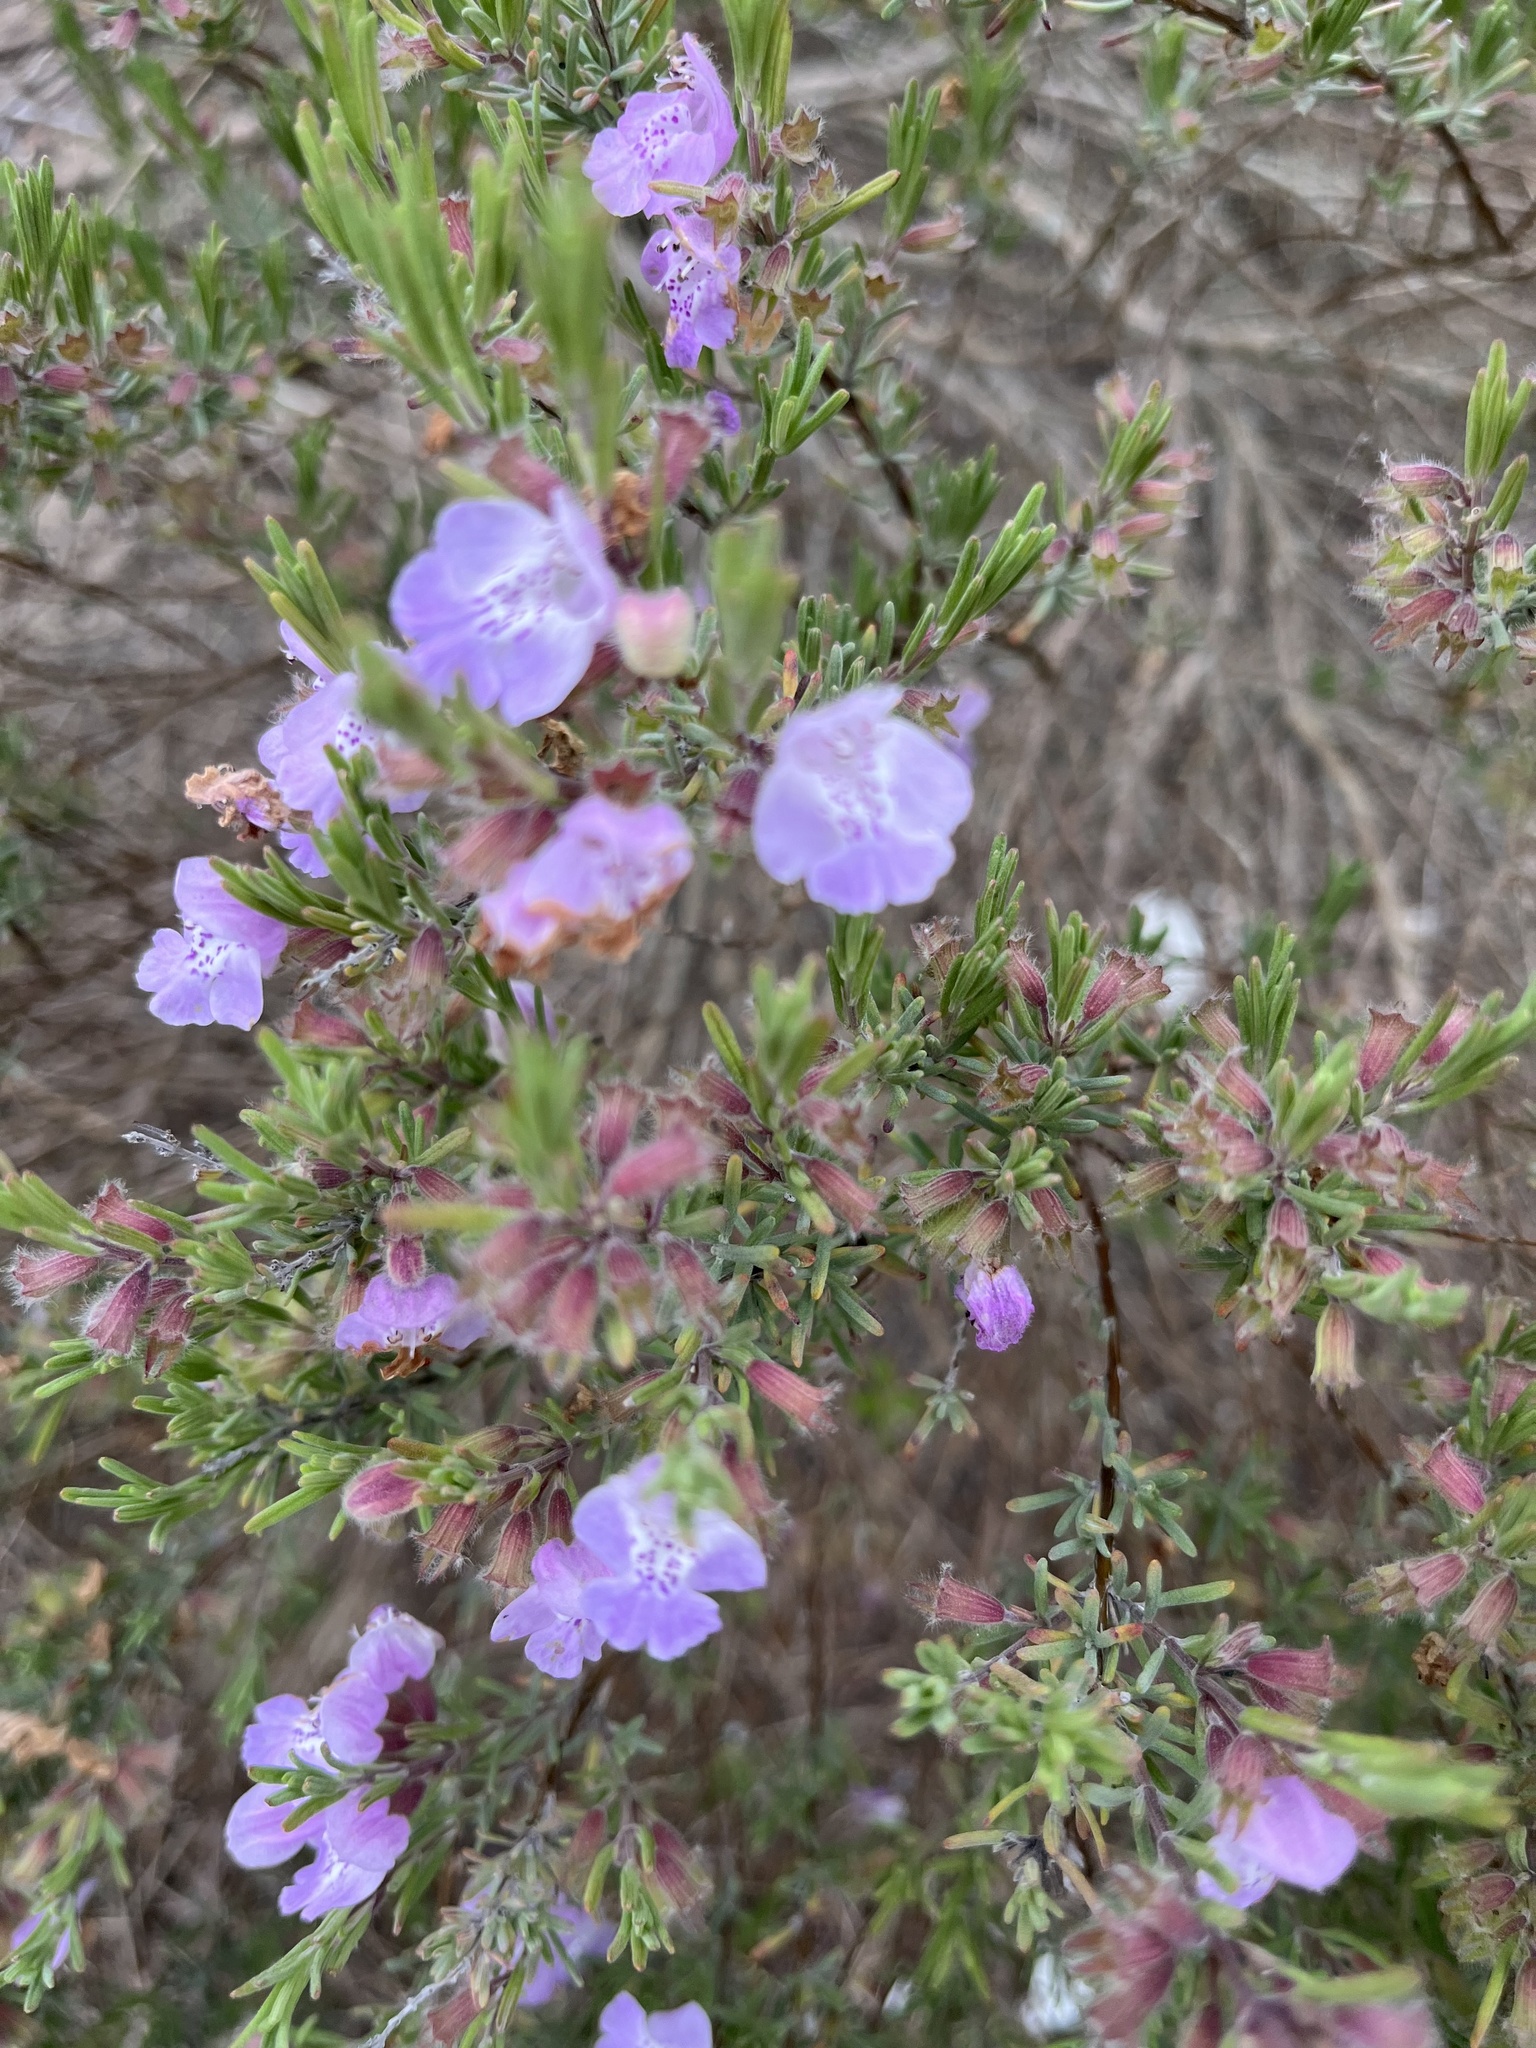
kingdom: Plantae
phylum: Tracheophyta
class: Magnoliopsida
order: Lamiales
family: Lamiaceae
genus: Conradina
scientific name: Conradina canescens
